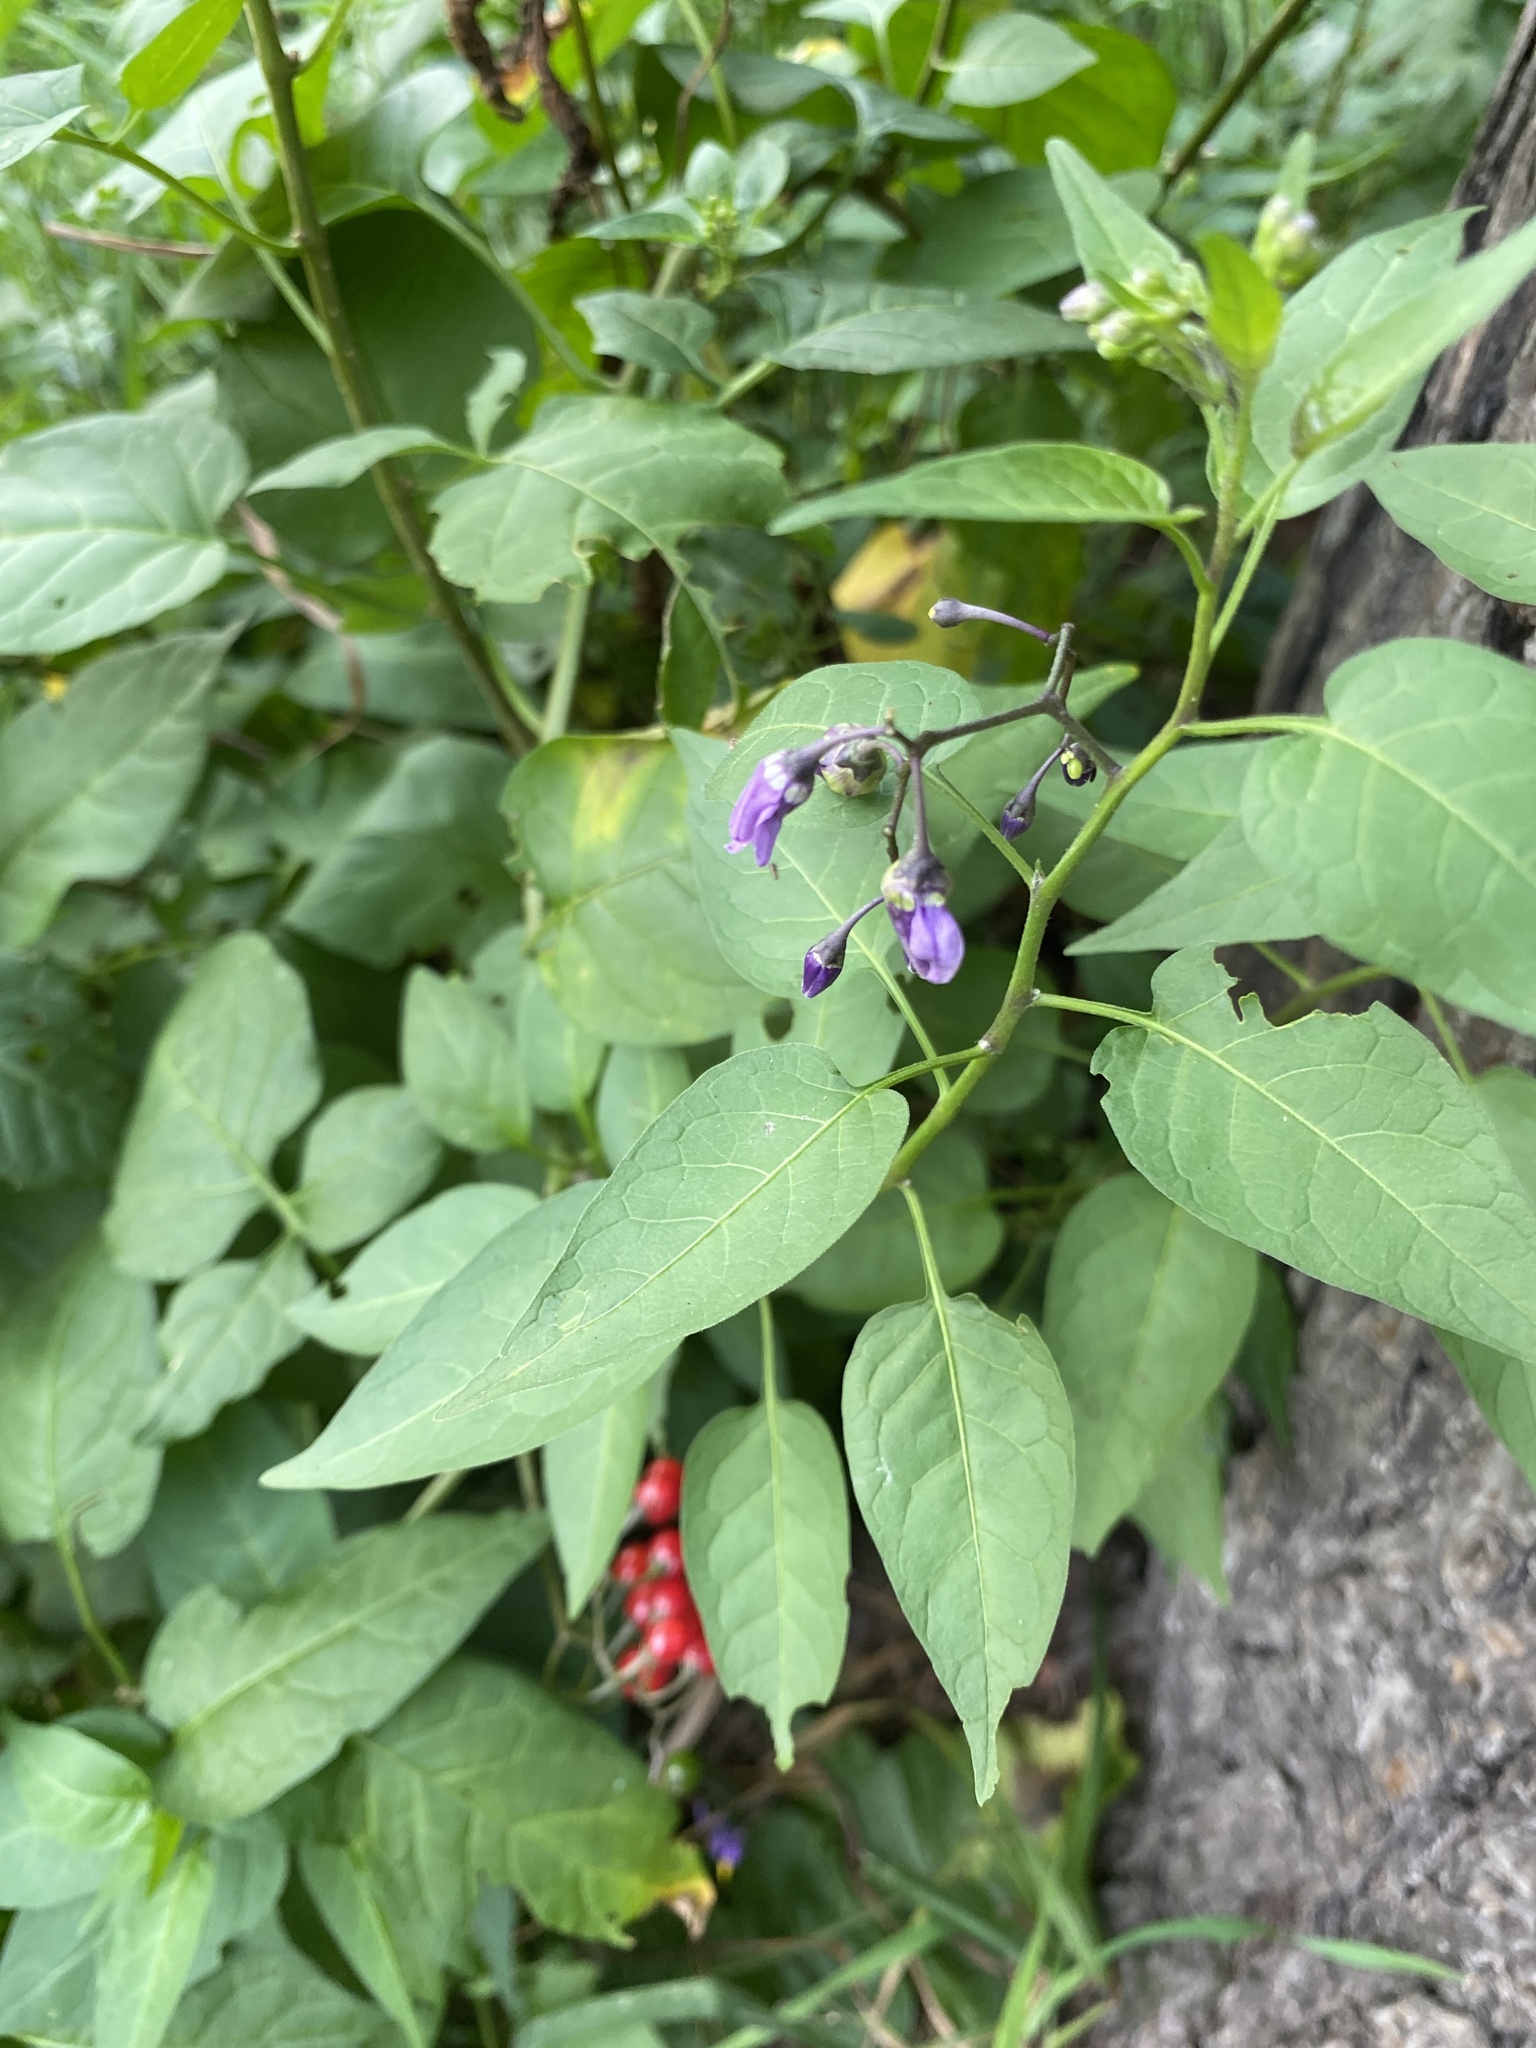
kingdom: Plantae
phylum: Tracheophyta
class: Magnoliopsida
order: Solanales
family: Solanaceae
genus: Solanum
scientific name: Solanum dulcamara
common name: Climbing nightshade
